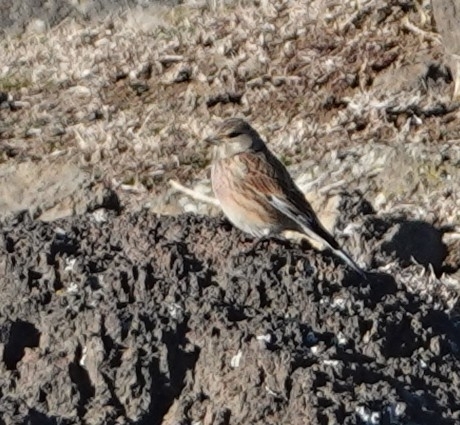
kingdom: Animalia
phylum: Chordata
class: Aves
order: Passeriformes
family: Fringillidae
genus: Linaria
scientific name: Linaria cannabina
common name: Common linnet
